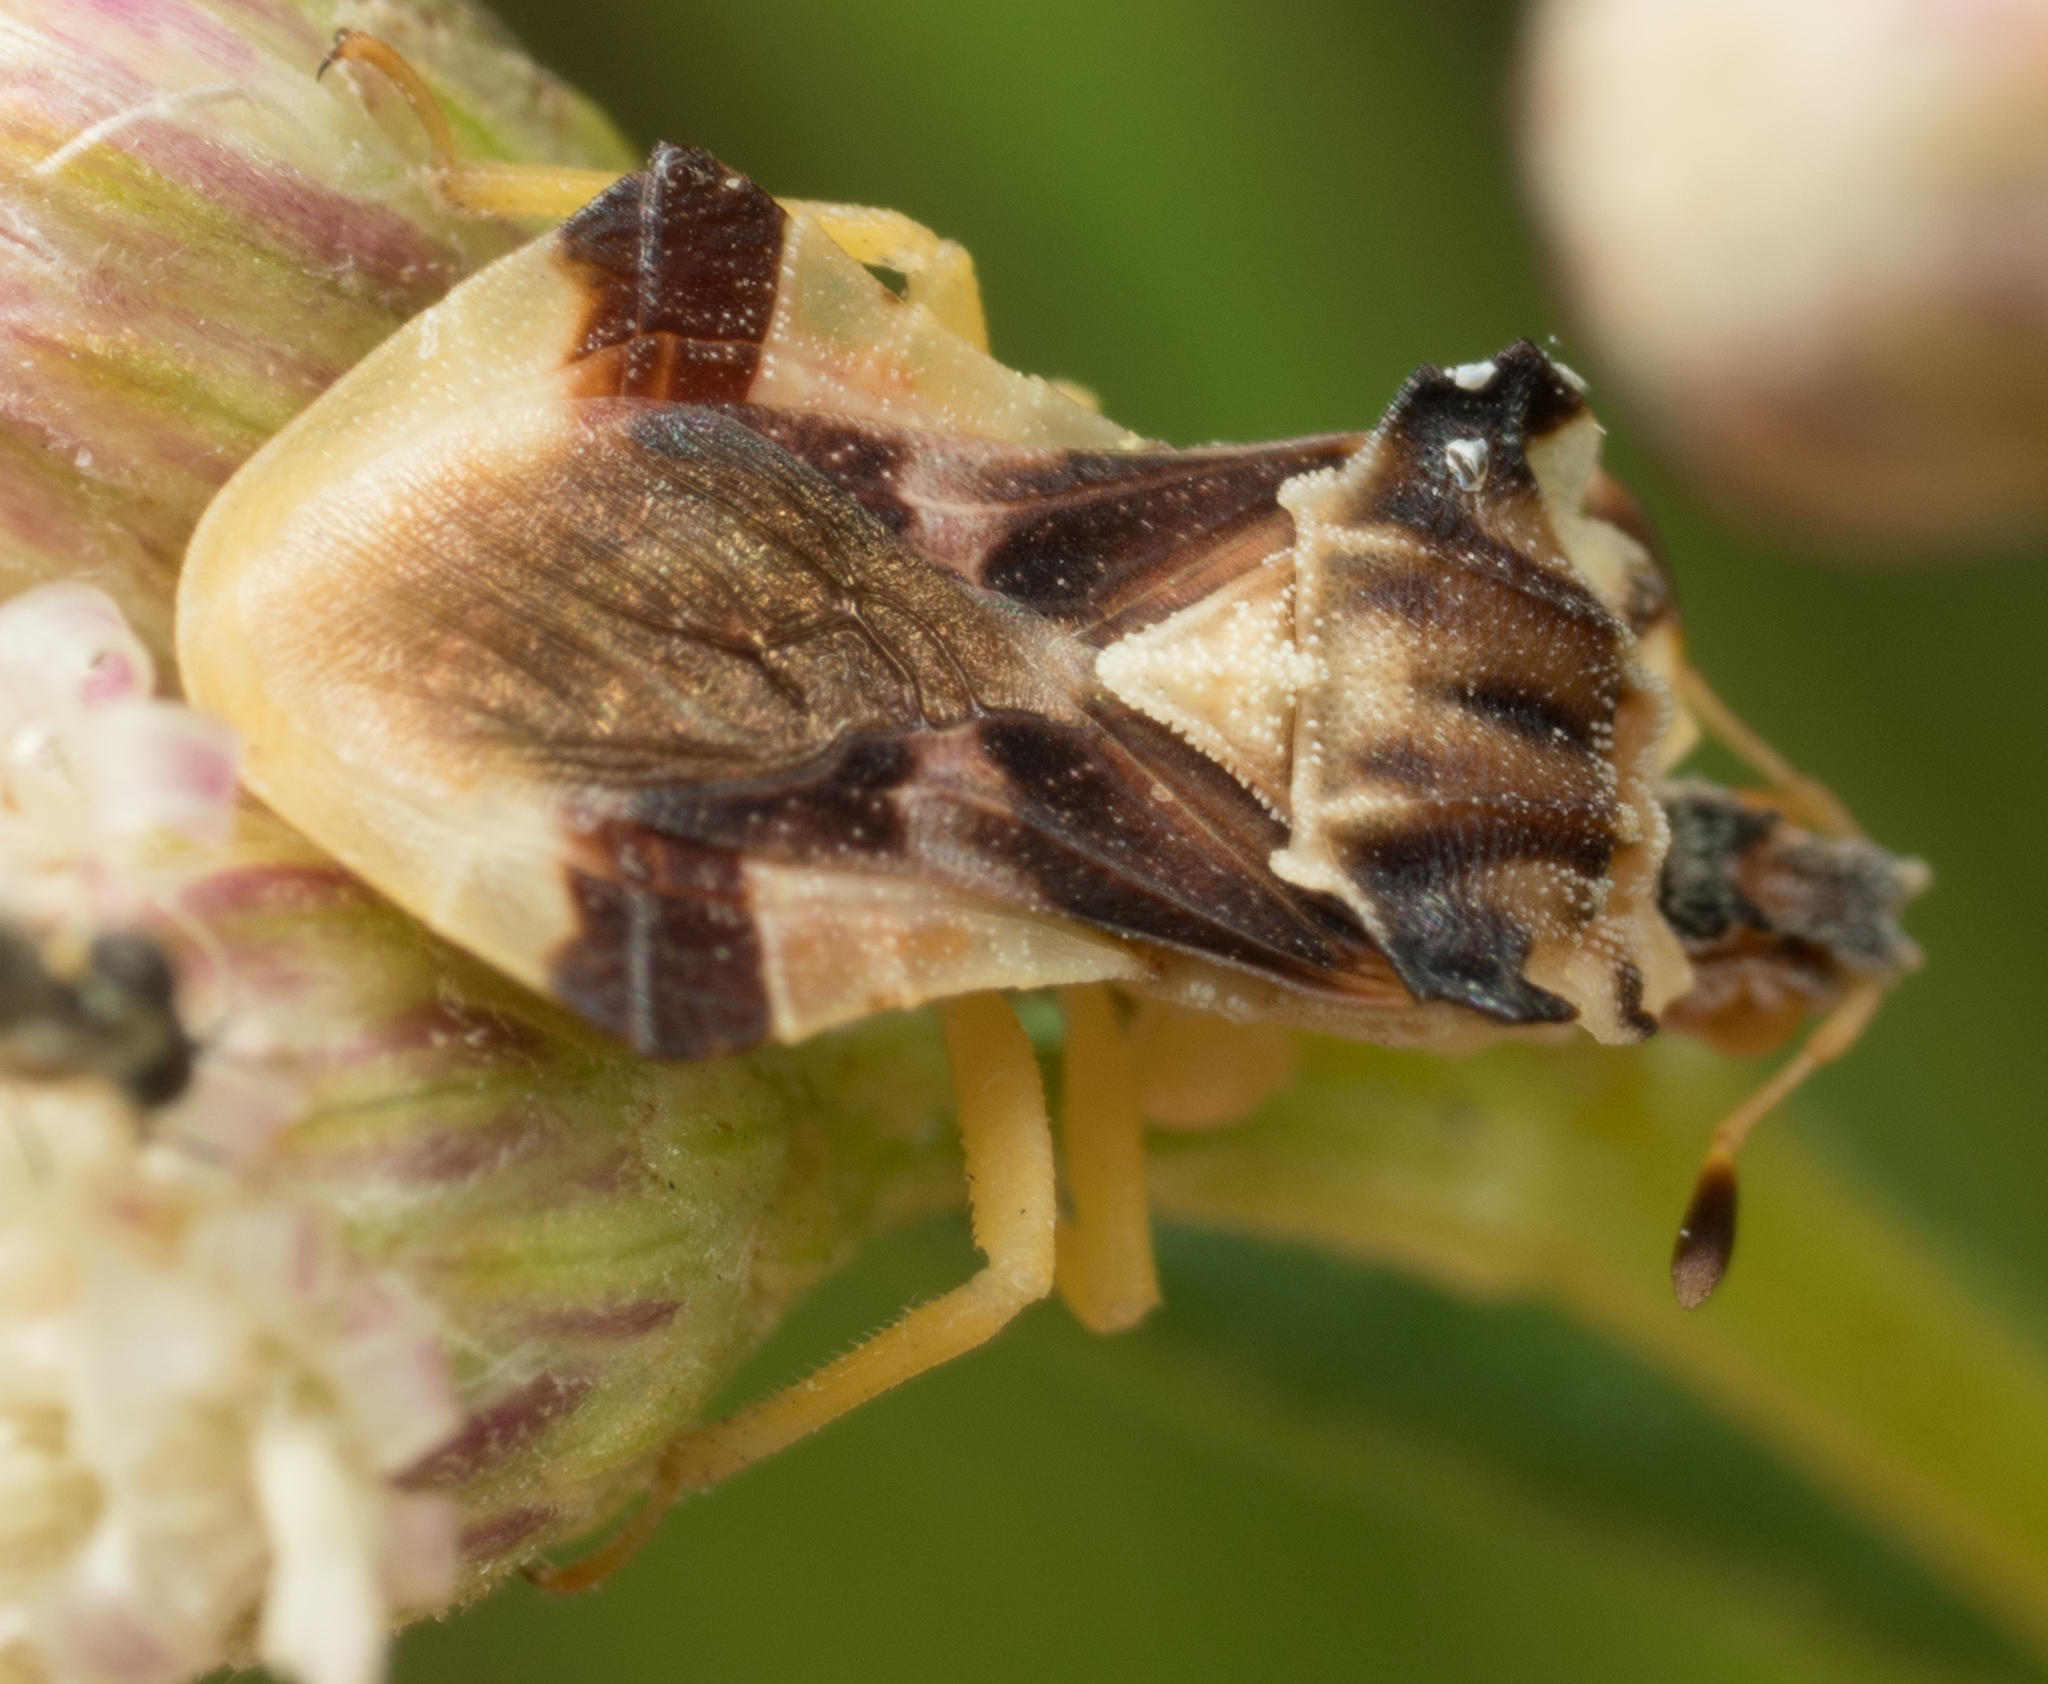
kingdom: Animalia
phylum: Arthropoda
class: Insecta
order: Hemiptera
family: Reduviidae
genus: Phymata
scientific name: Phymata pacifica
